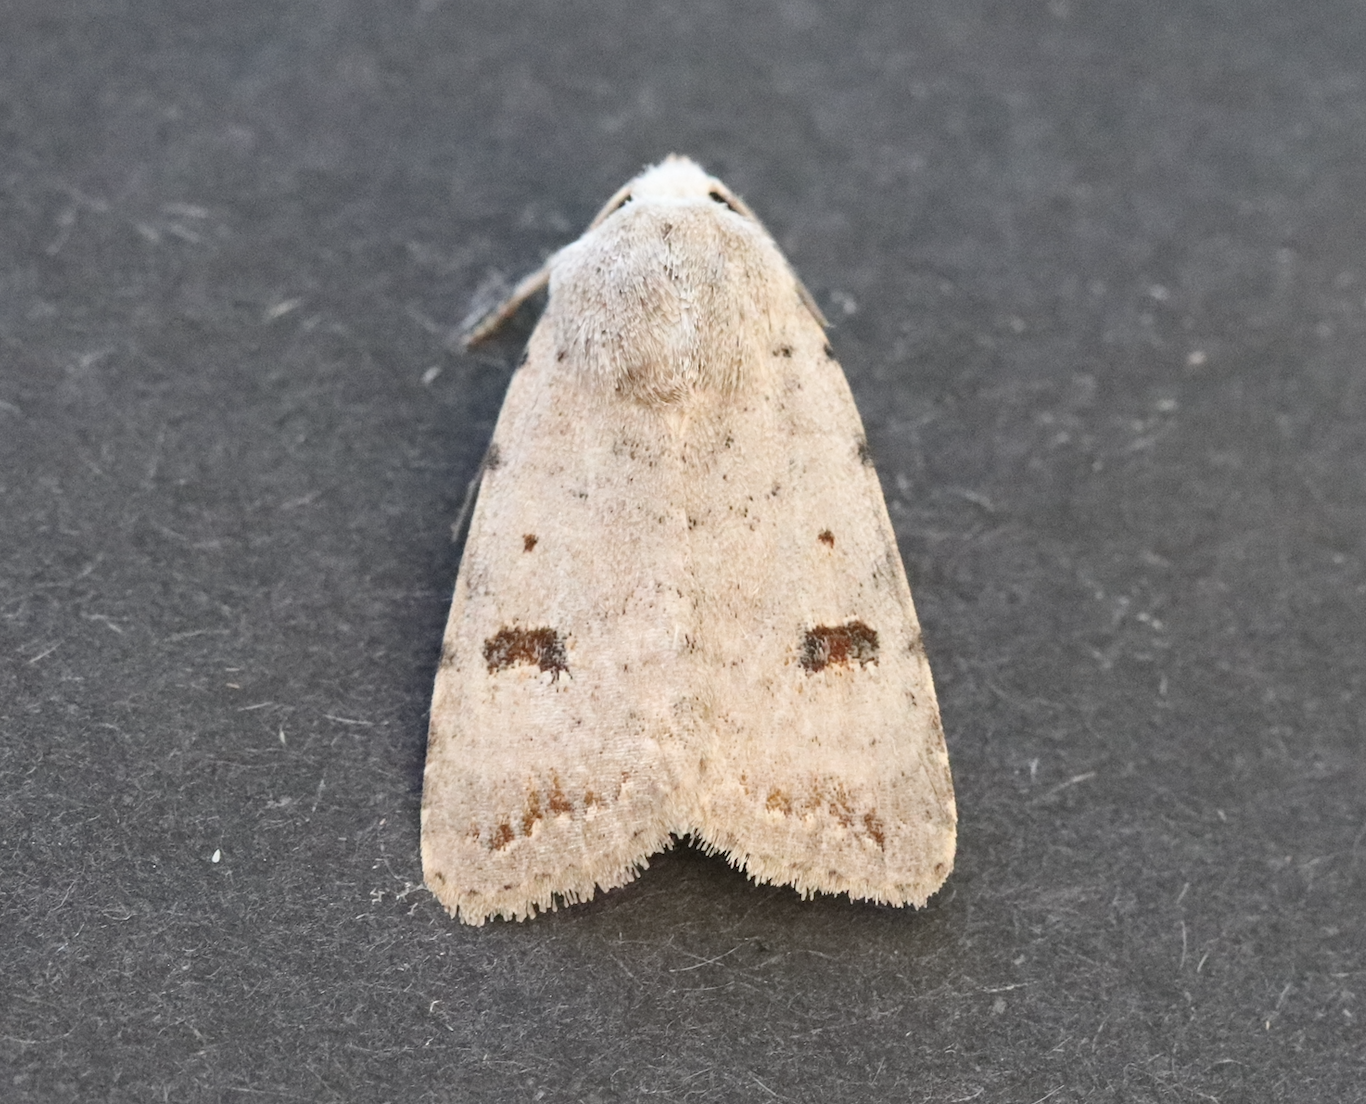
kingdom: Animalia
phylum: Arthropoda
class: Insecta
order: Lepidoptera
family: Noctuidae
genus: Caradrina
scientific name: Caradrina kadenii
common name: Clancy's rustic
